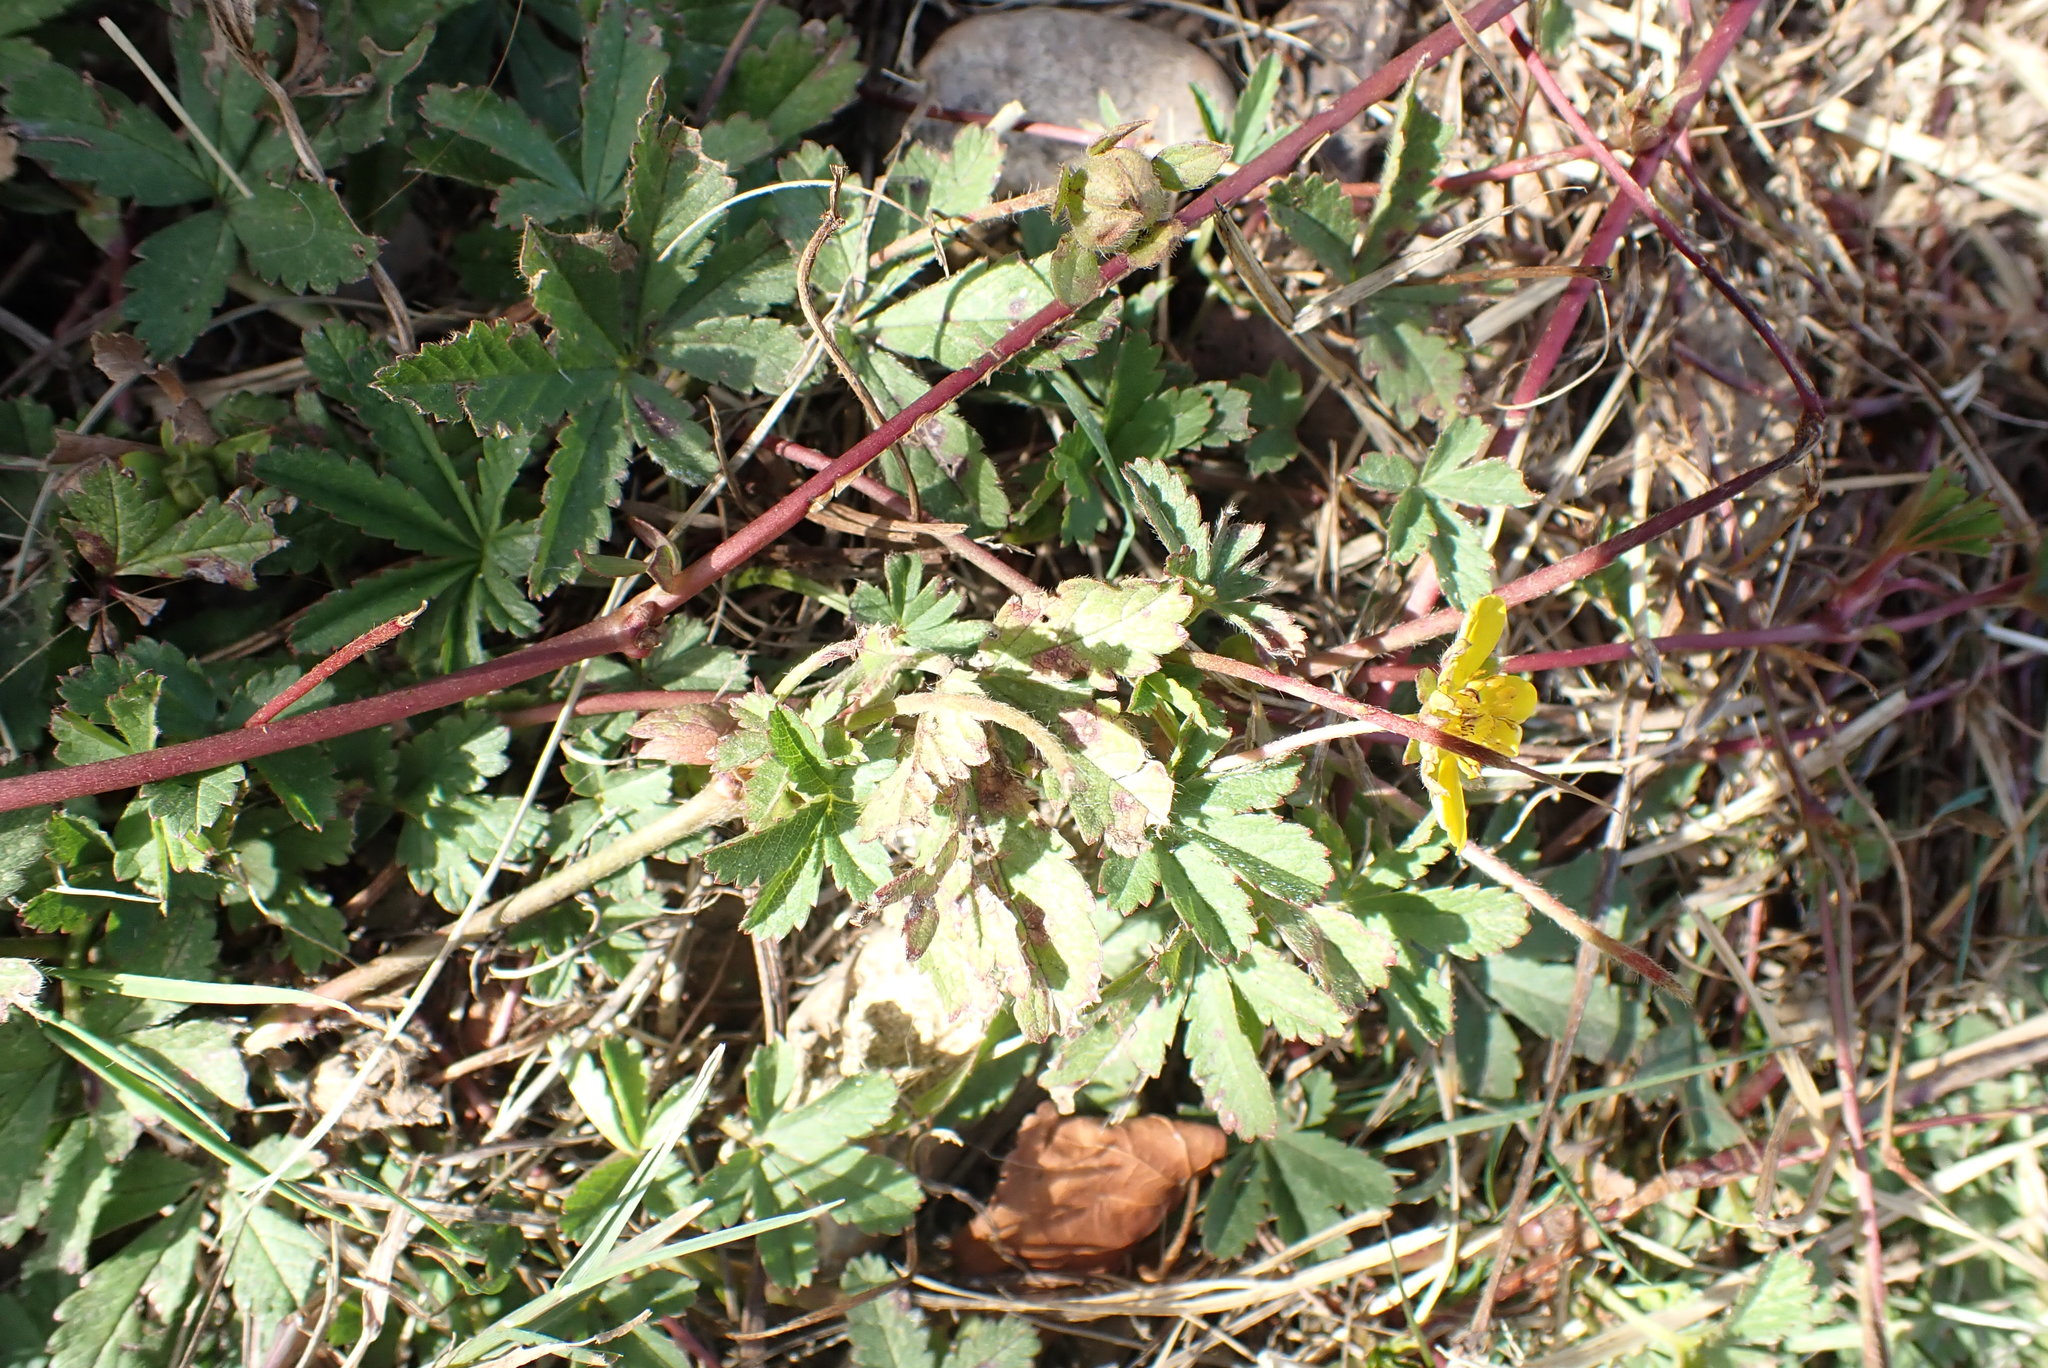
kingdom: Plantae
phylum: Tracheophyta
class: Magnoliopsida
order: Rosales
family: Rosaceae
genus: Potentilla
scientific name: Potentilla reptans
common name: Creeping cinquefoil
